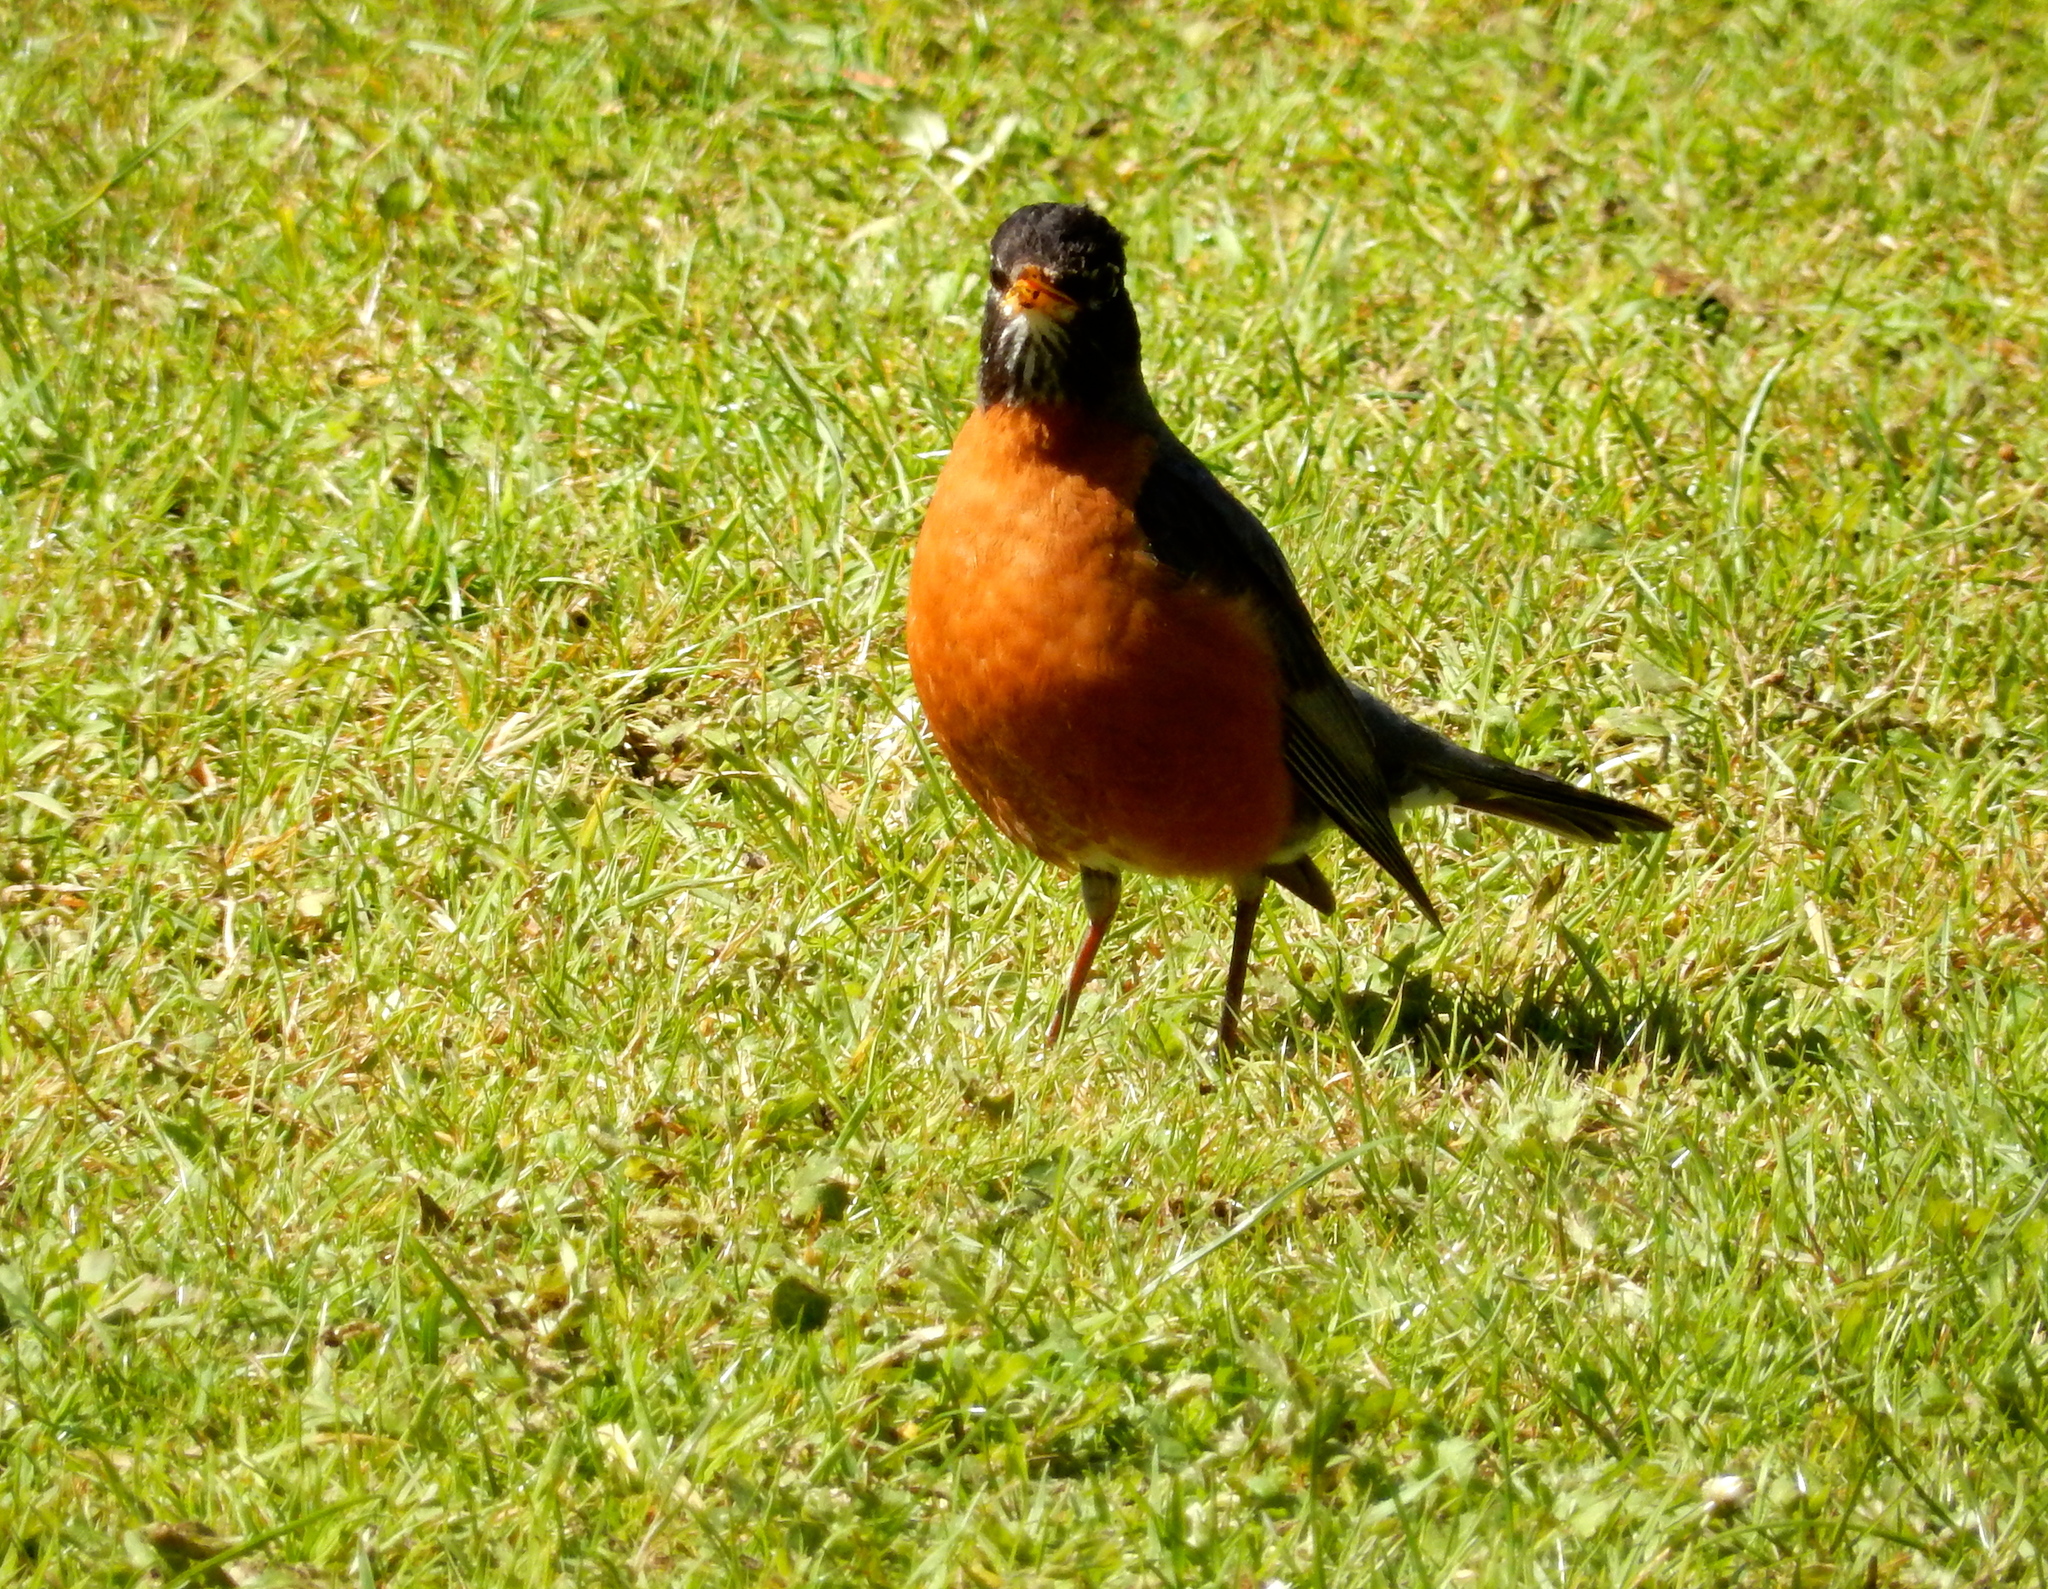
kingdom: Animalia
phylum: Chordata
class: Aves
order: Passeriformes
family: Turdidae
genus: Turdus
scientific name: Turdus migratorius
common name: American robin
